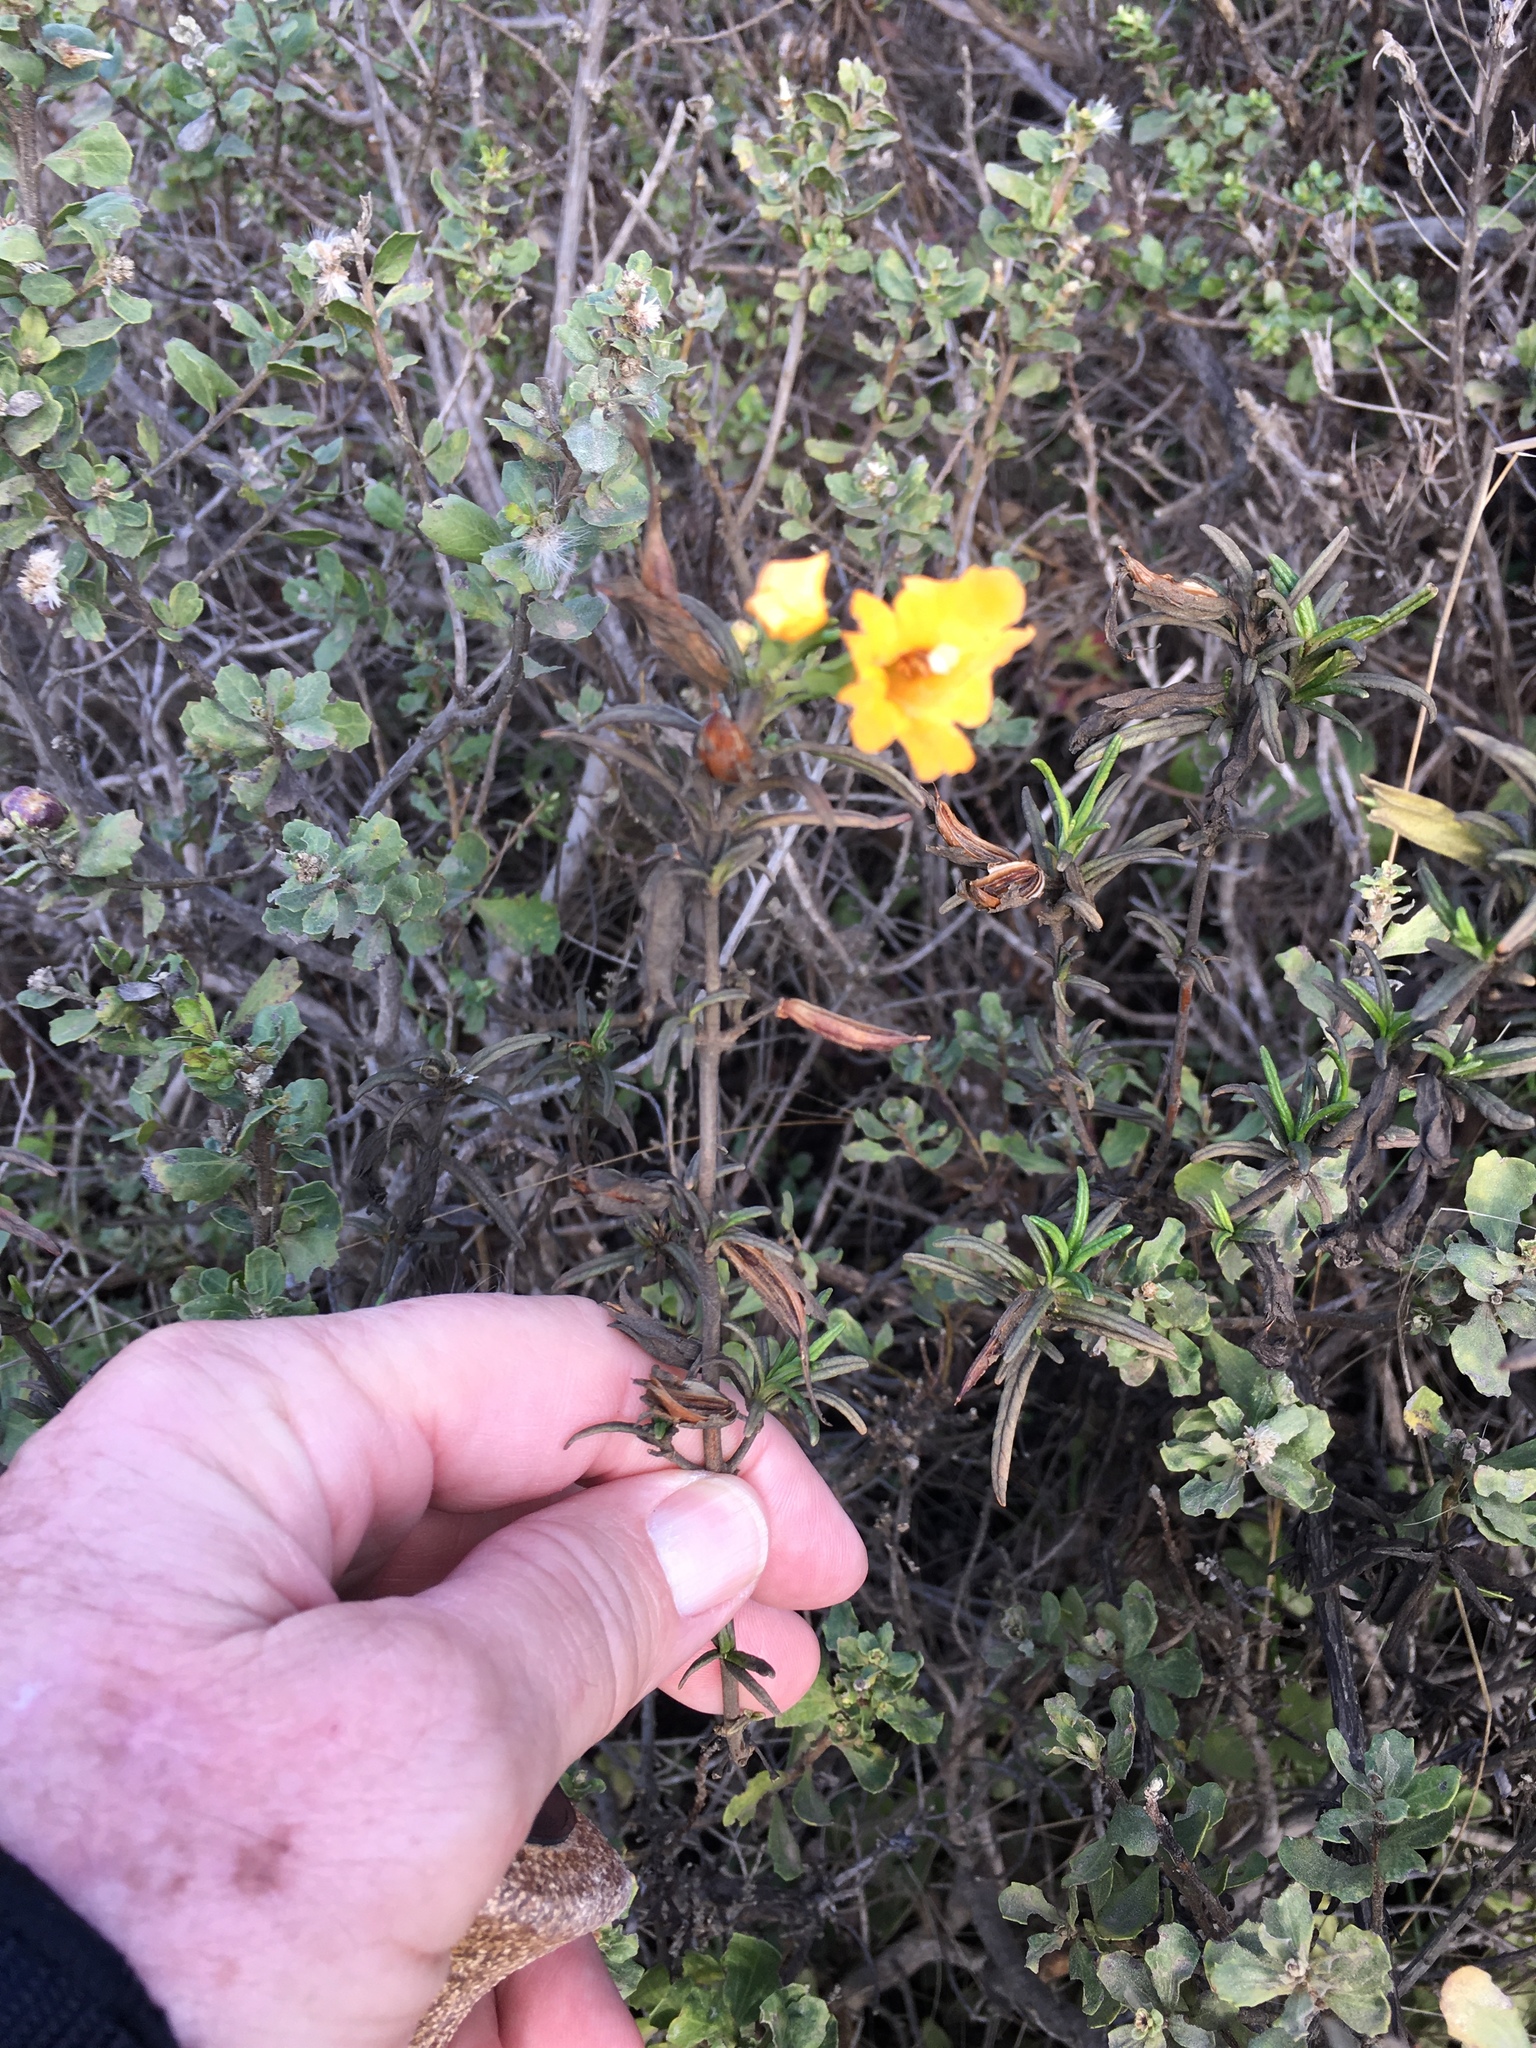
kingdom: Plantae
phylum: Tracheophyta
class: Magnoliopsida
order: Lamiales
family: Phrymaceae
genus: Diplacus
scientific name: Diplacus aurantiacus
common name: Bush monkey-flower
